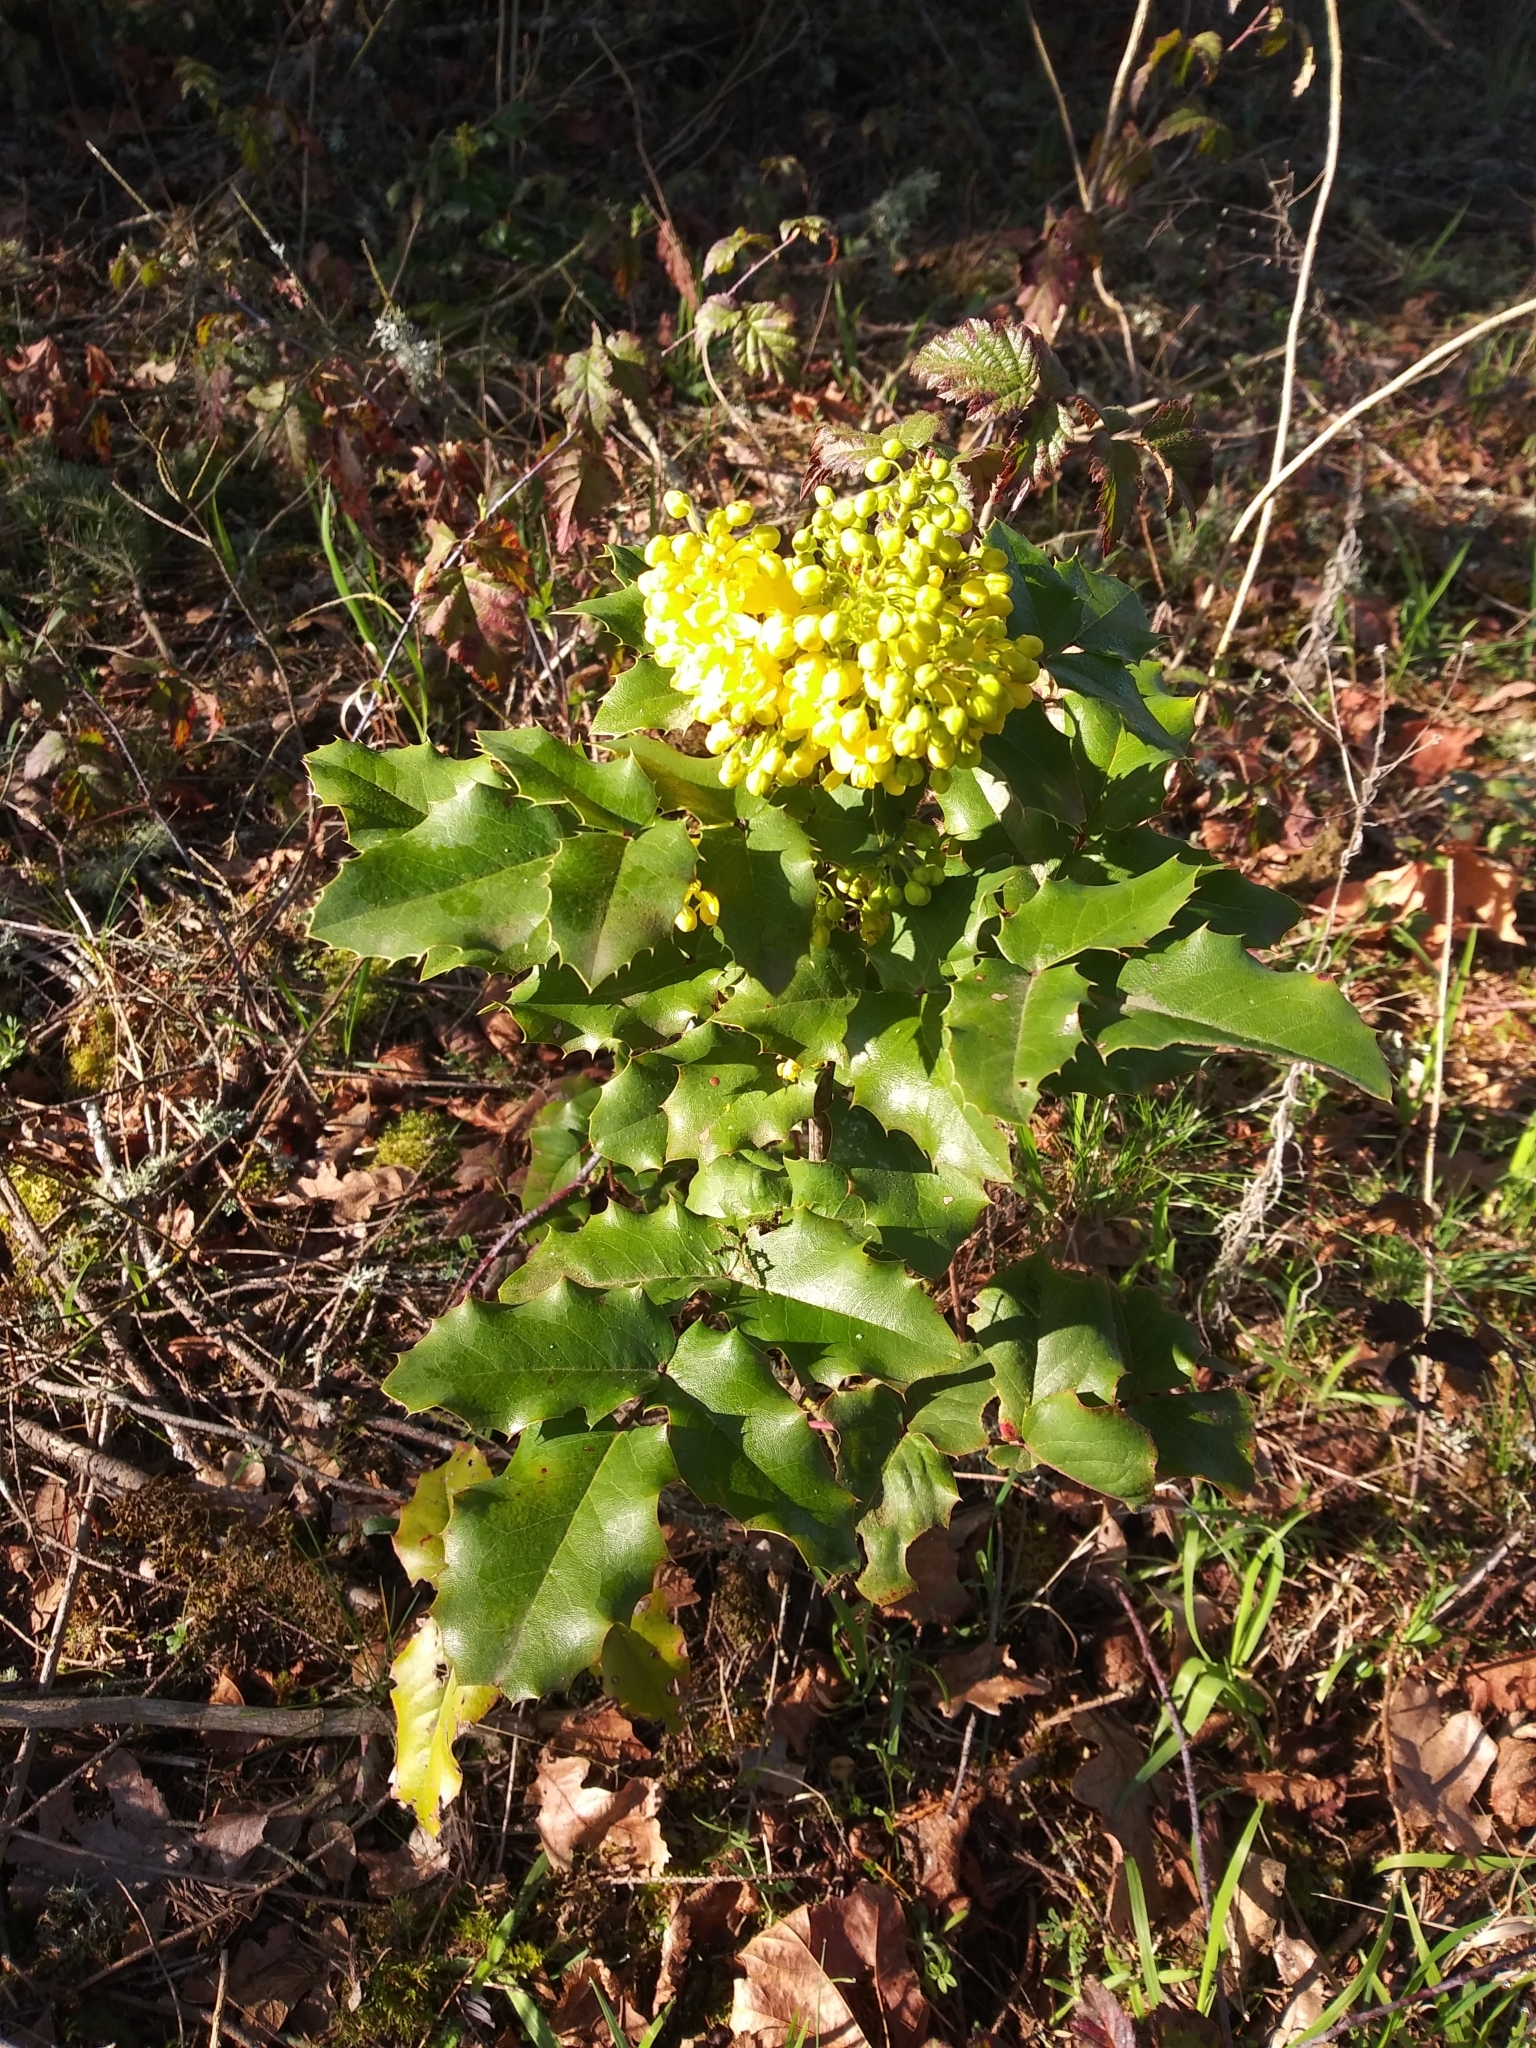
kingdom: Plantae
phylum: Tracheophyta
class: Magnoliopsida
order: Ranunculales
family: Berberidaceae
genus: Mahonia
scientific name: Mahonia aquifolium
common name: Oregon-grape
